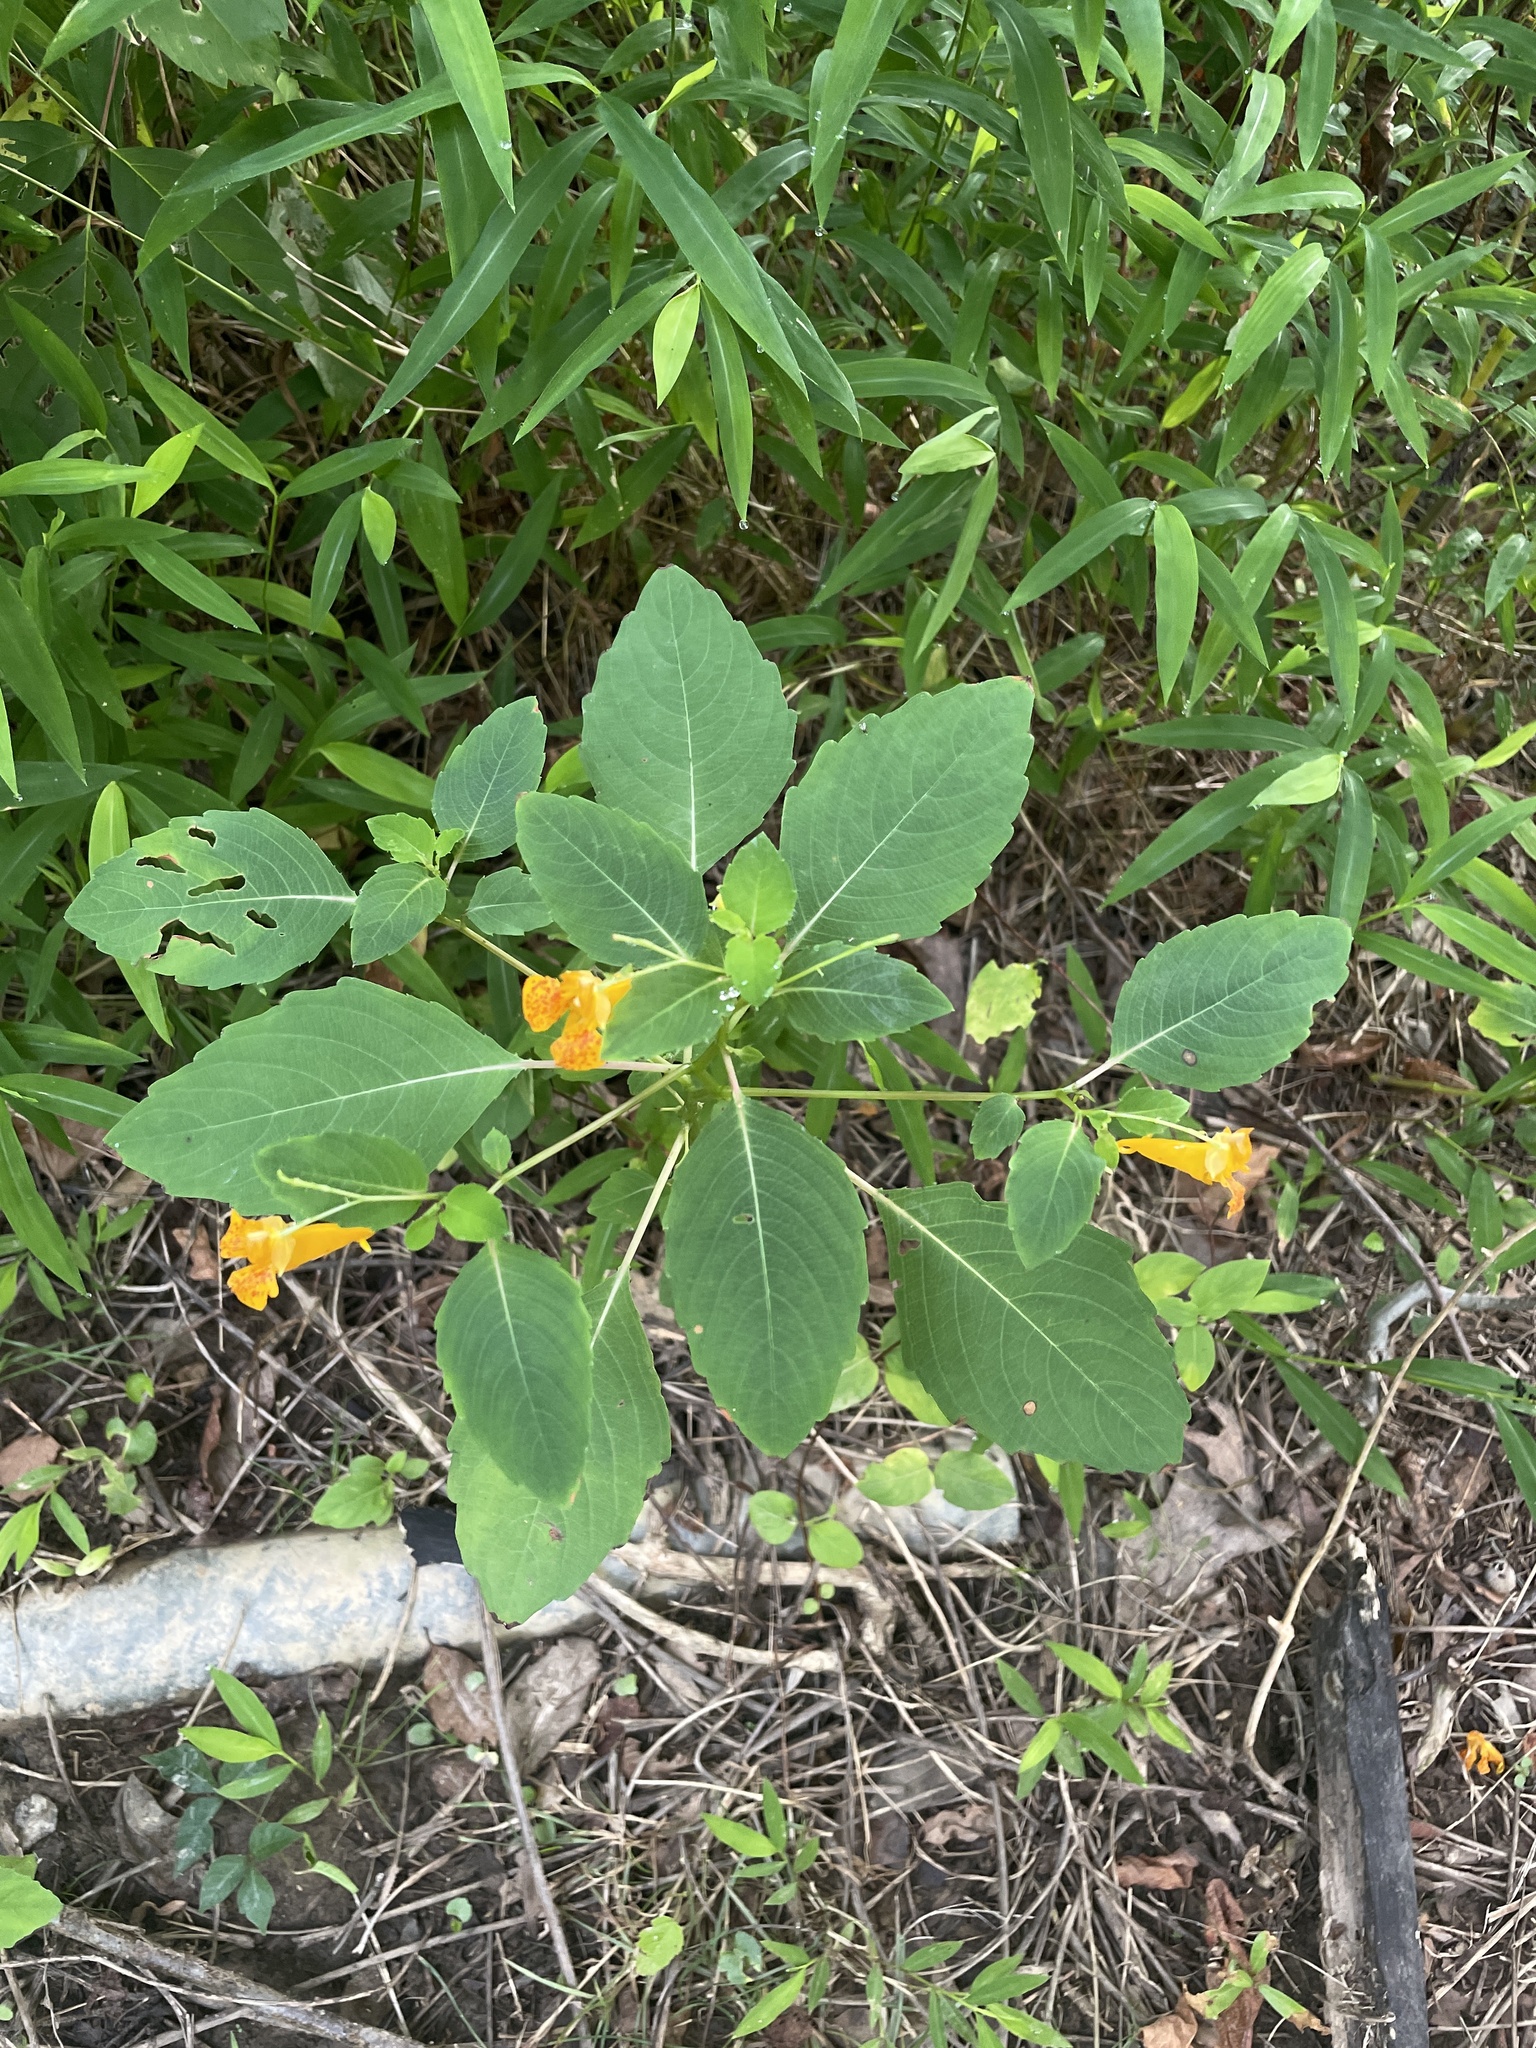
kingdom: Plantae
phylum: Tracheophyta
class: Magnoliopsida
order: Ericales
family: Balsaminaceae
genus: Impatiens
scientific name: Impatiens capensis
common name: Orange balsam
